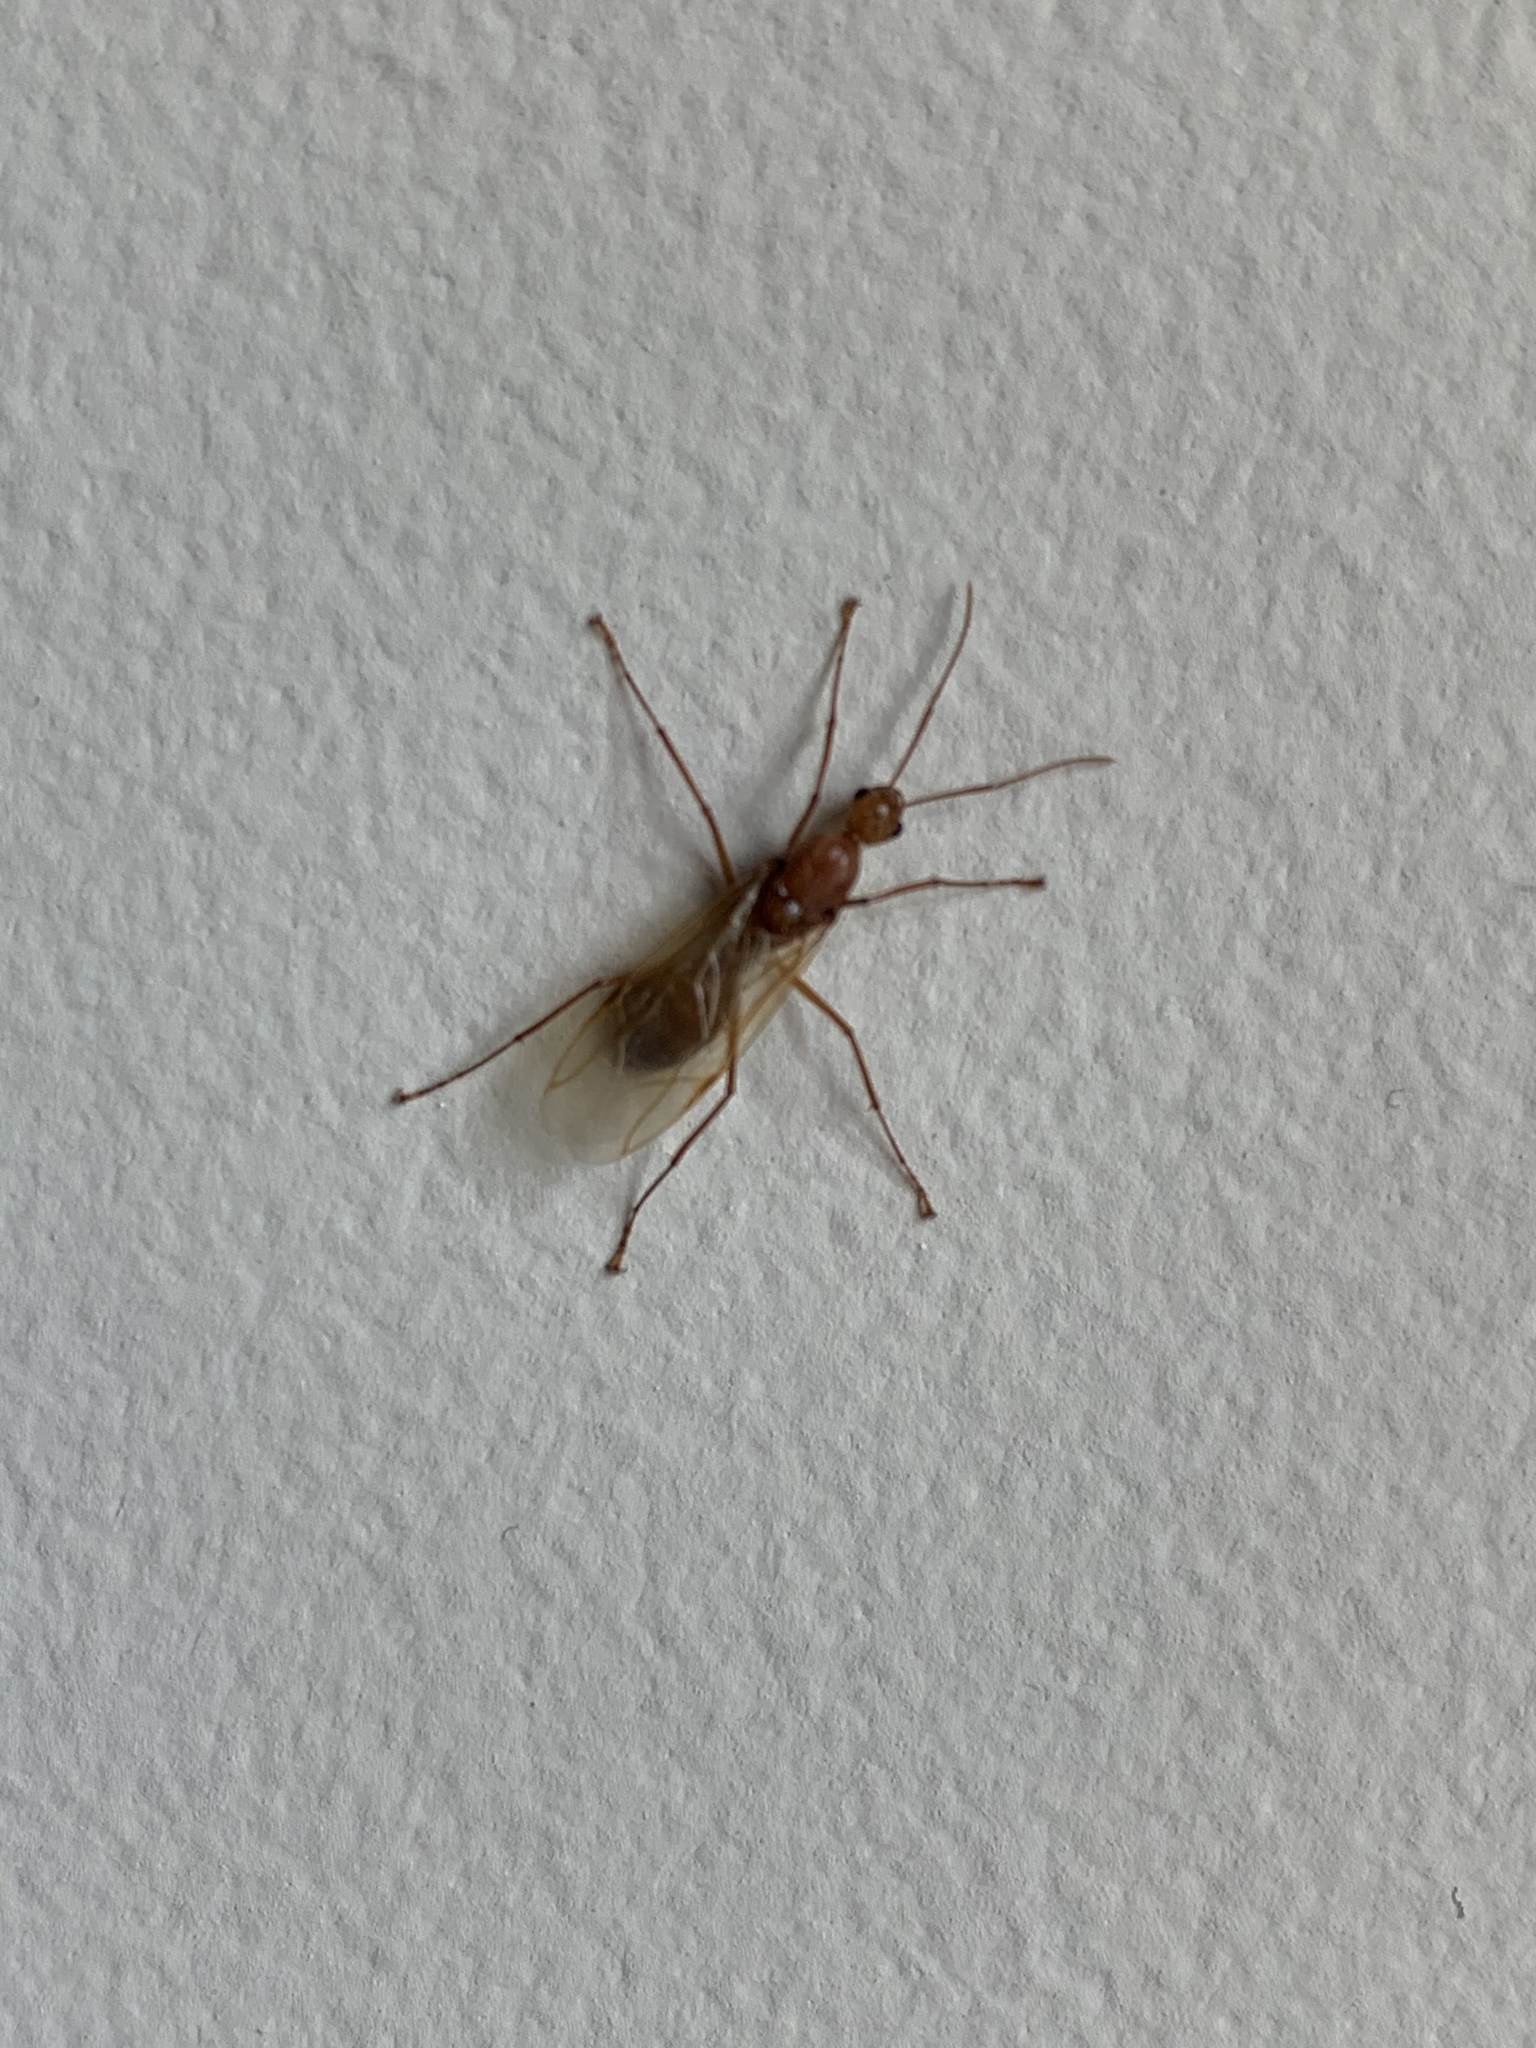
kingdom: Animalia
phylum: Arthropoda
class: Insecta
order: Hymenoptera
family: Formicidae
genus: Camponotus
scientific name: Camponotus castaneus
